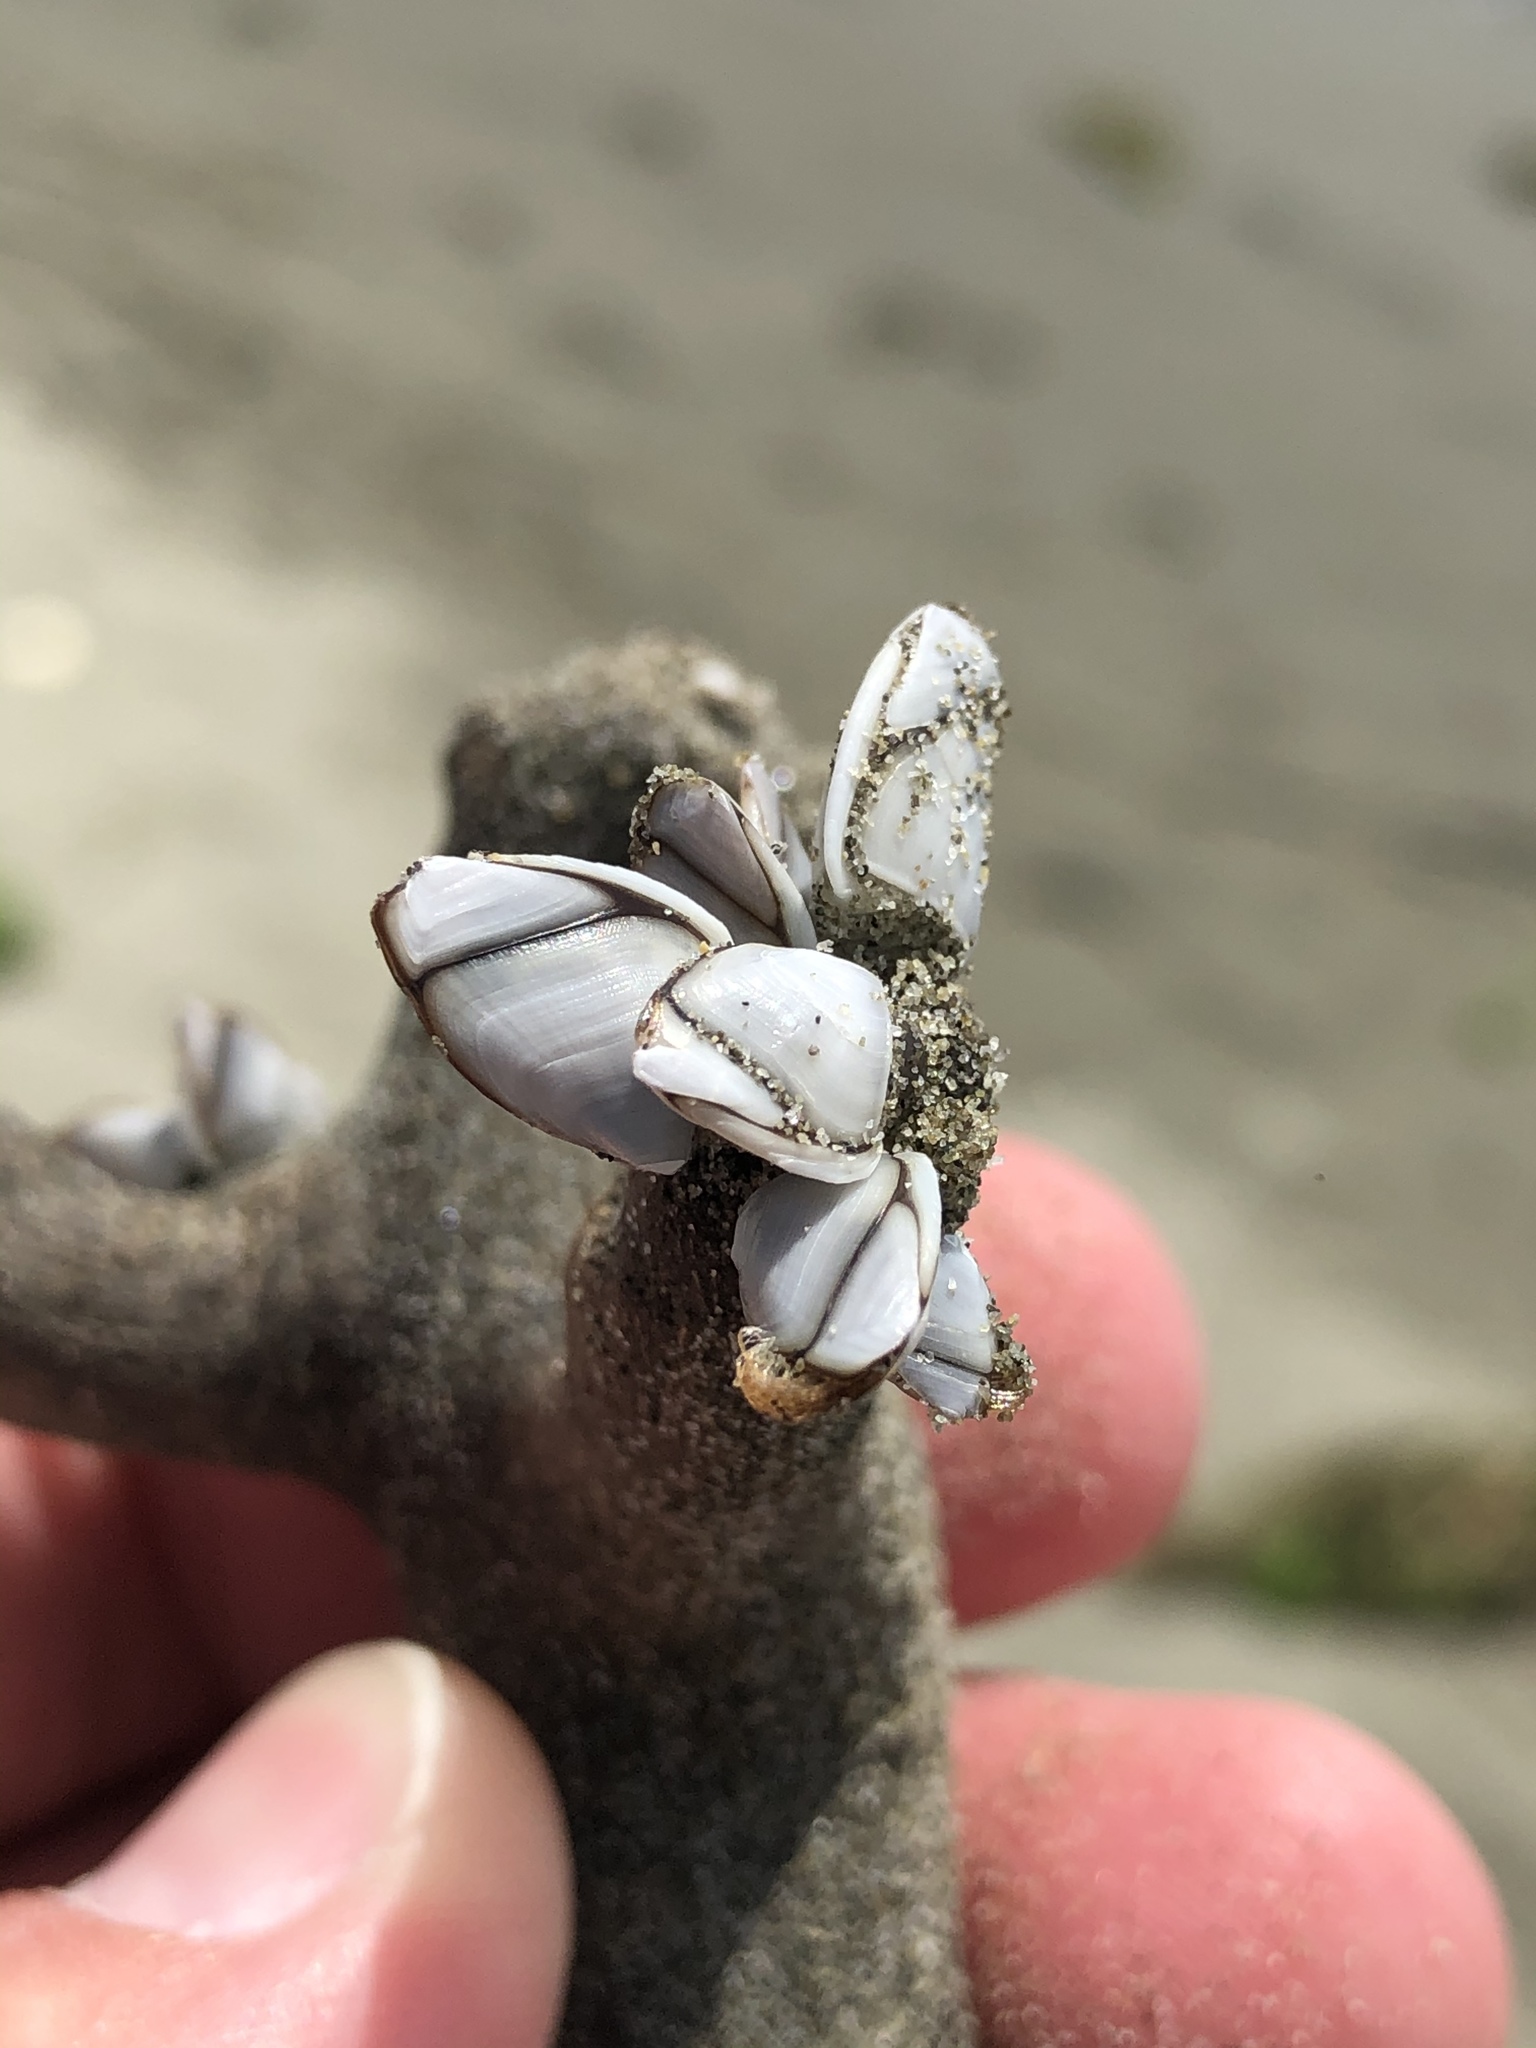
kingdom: Animalia
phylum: Arthropoda
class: Maxillopoda
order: Pedunculata
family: Lepadidae
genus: Lepas
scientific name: Lepas australis
